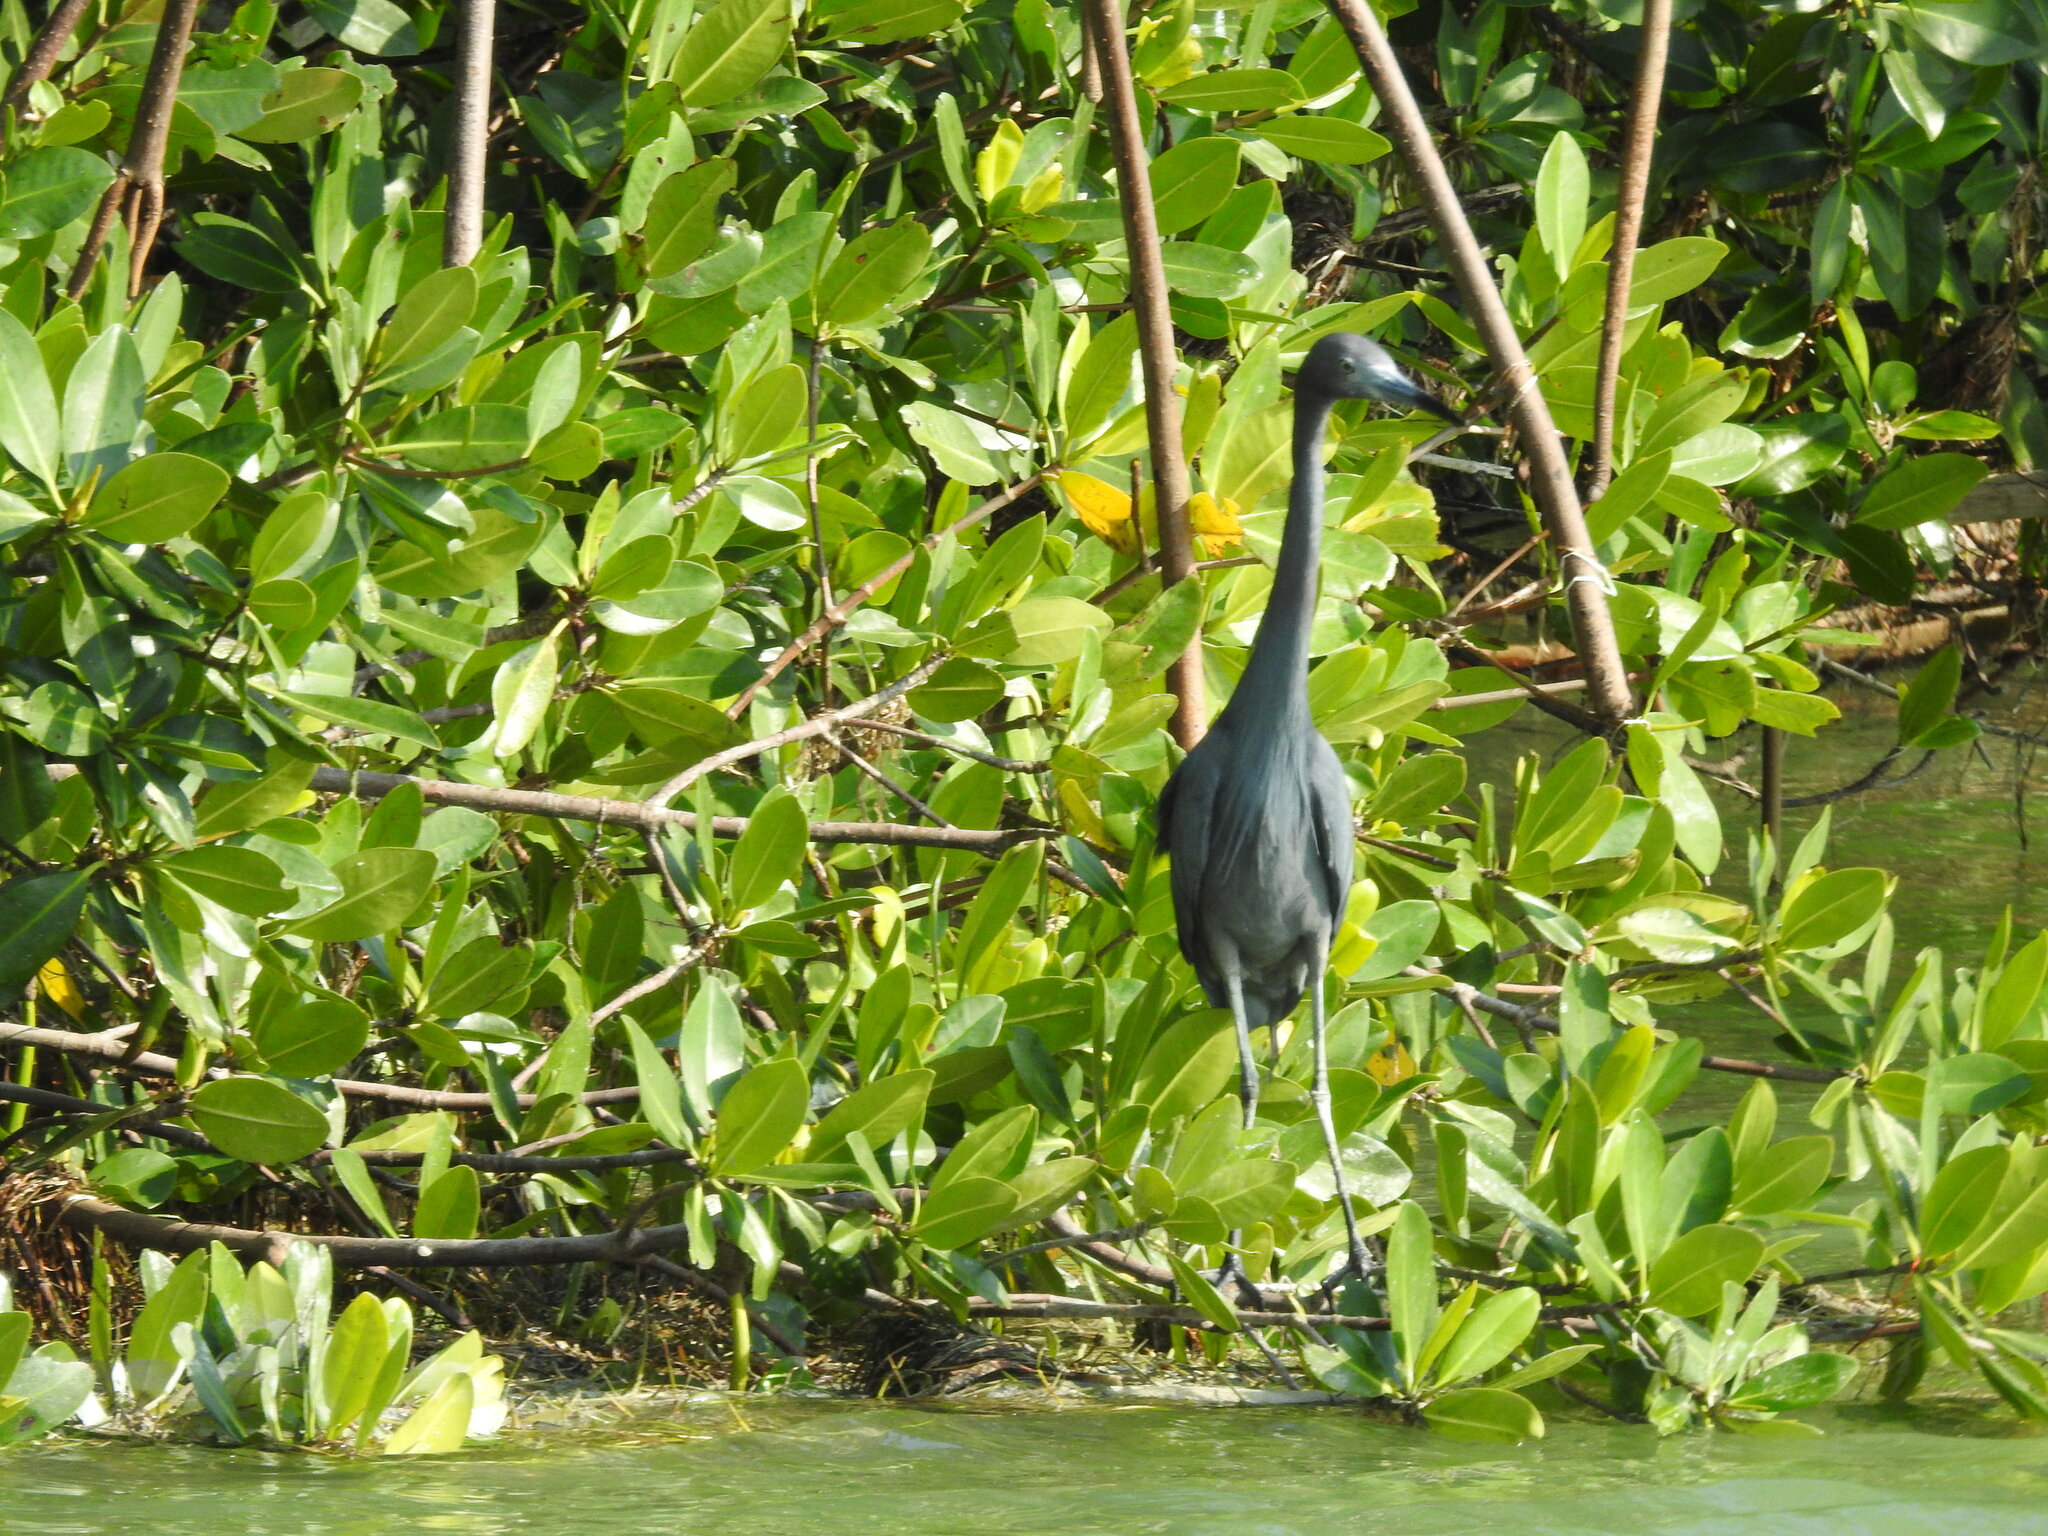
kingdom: Animalia
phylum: Chordata
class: Aves
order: Pelecaniformes
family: Ardeidae
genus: Egretta
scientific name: Egretta caerulea
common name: Little blue heron
